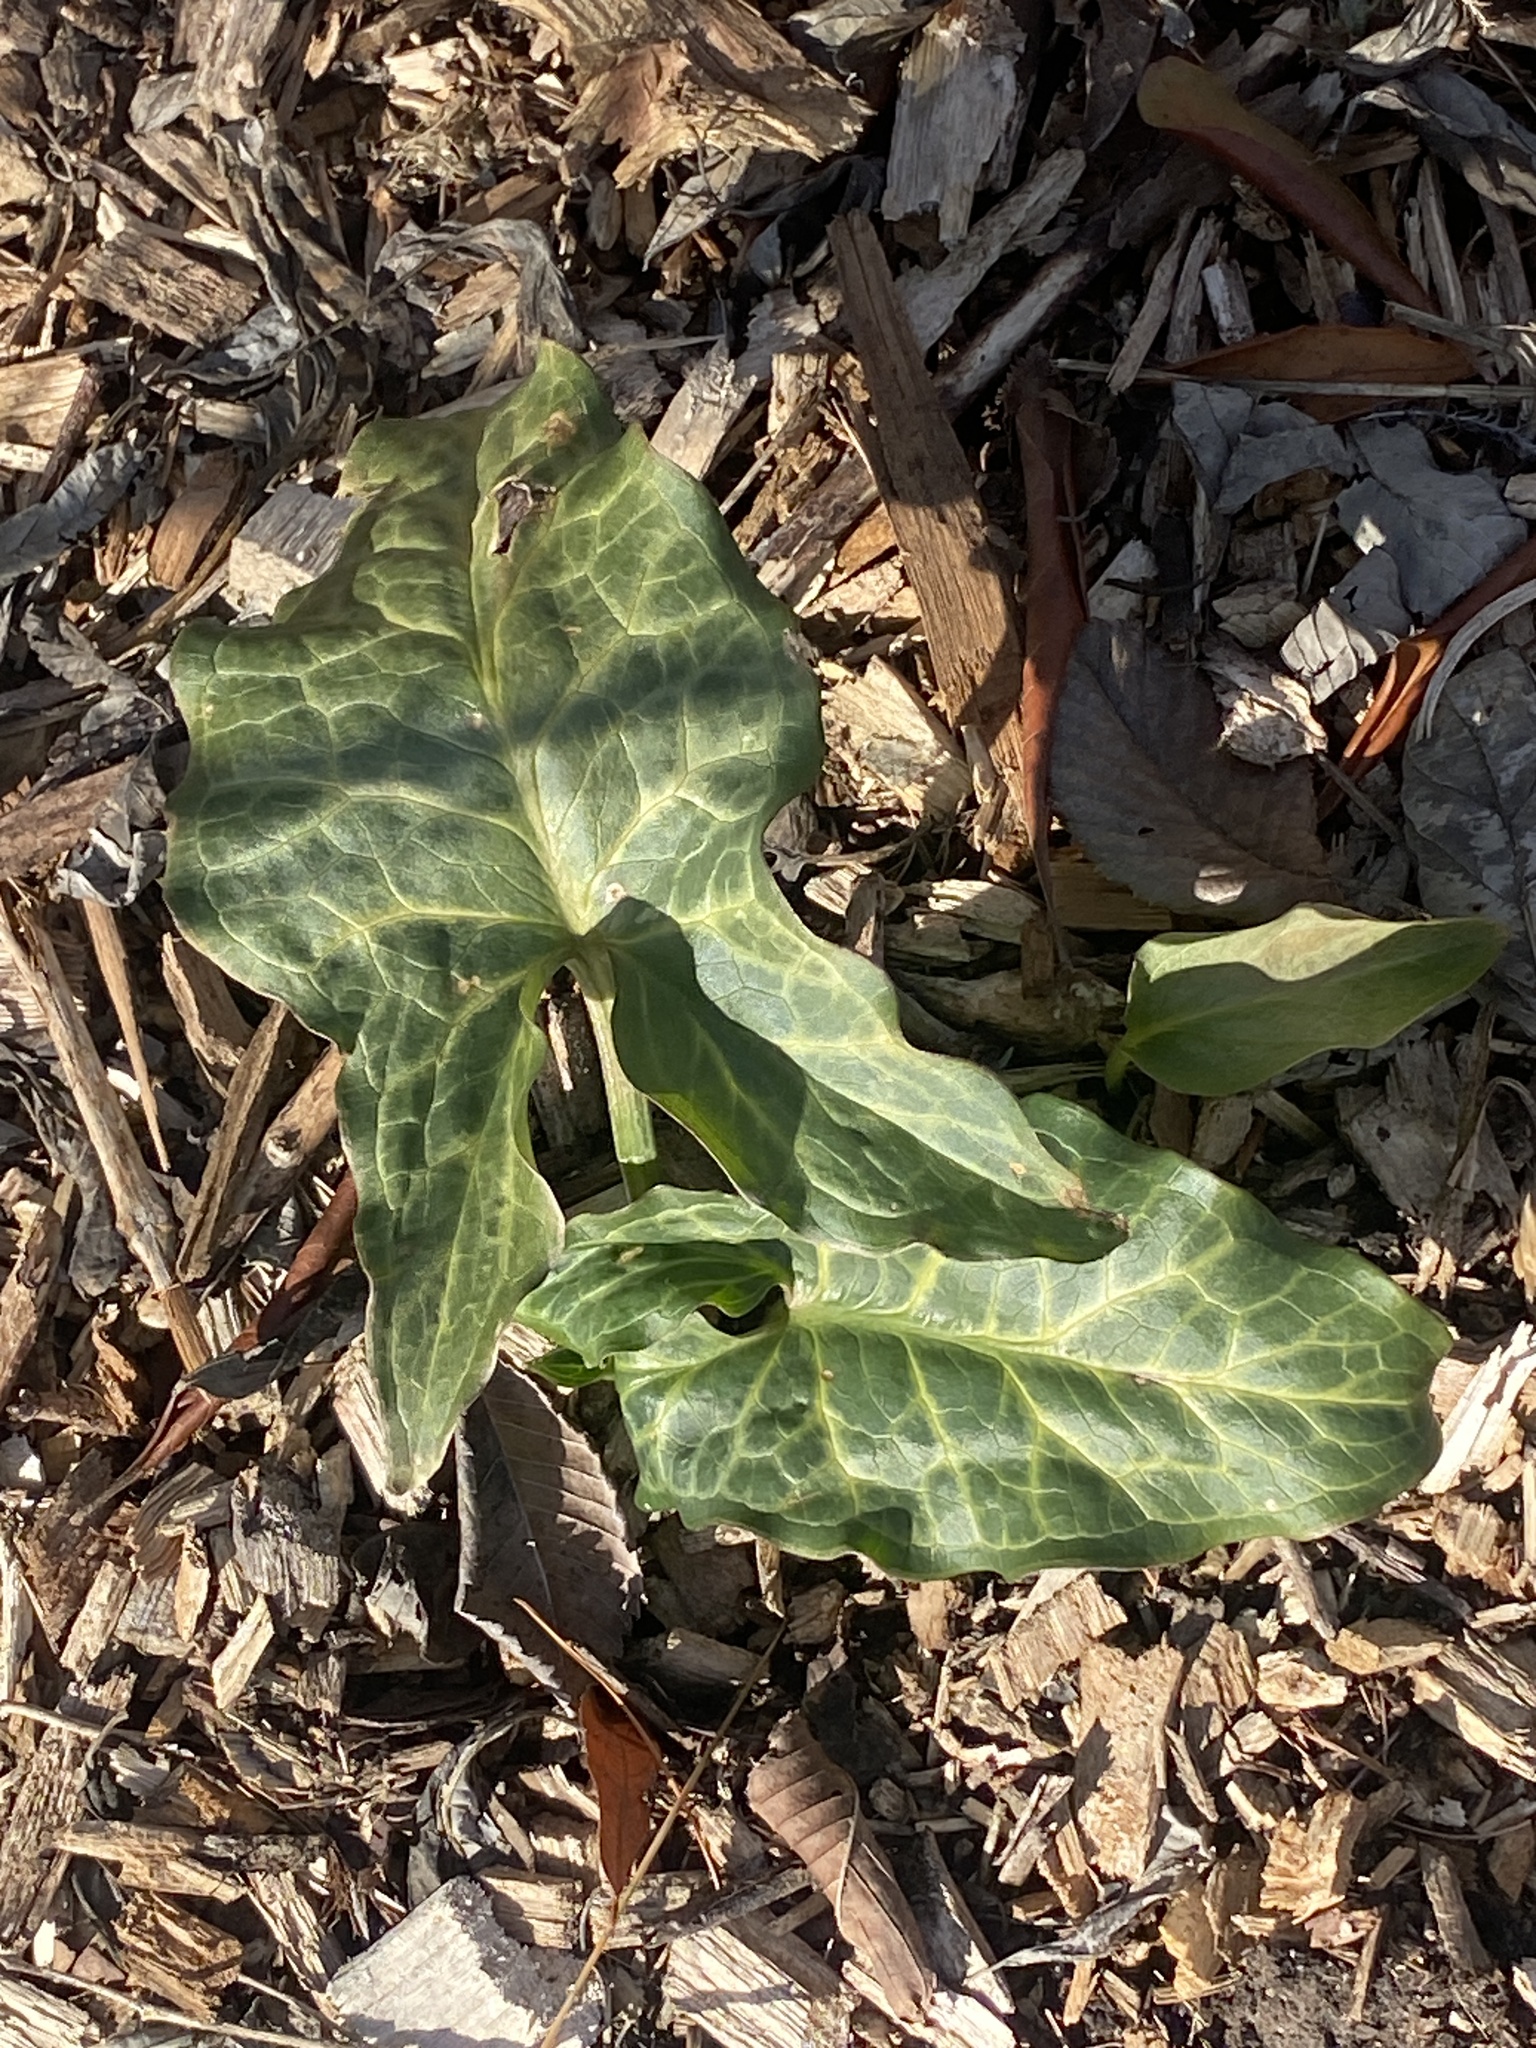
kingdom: Plantae
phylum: Tracheophyta
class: Liliopsida
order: Alismatales
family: Araceae
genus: Arum
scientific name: Arum italicum
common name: Italian lords-and-ladies
